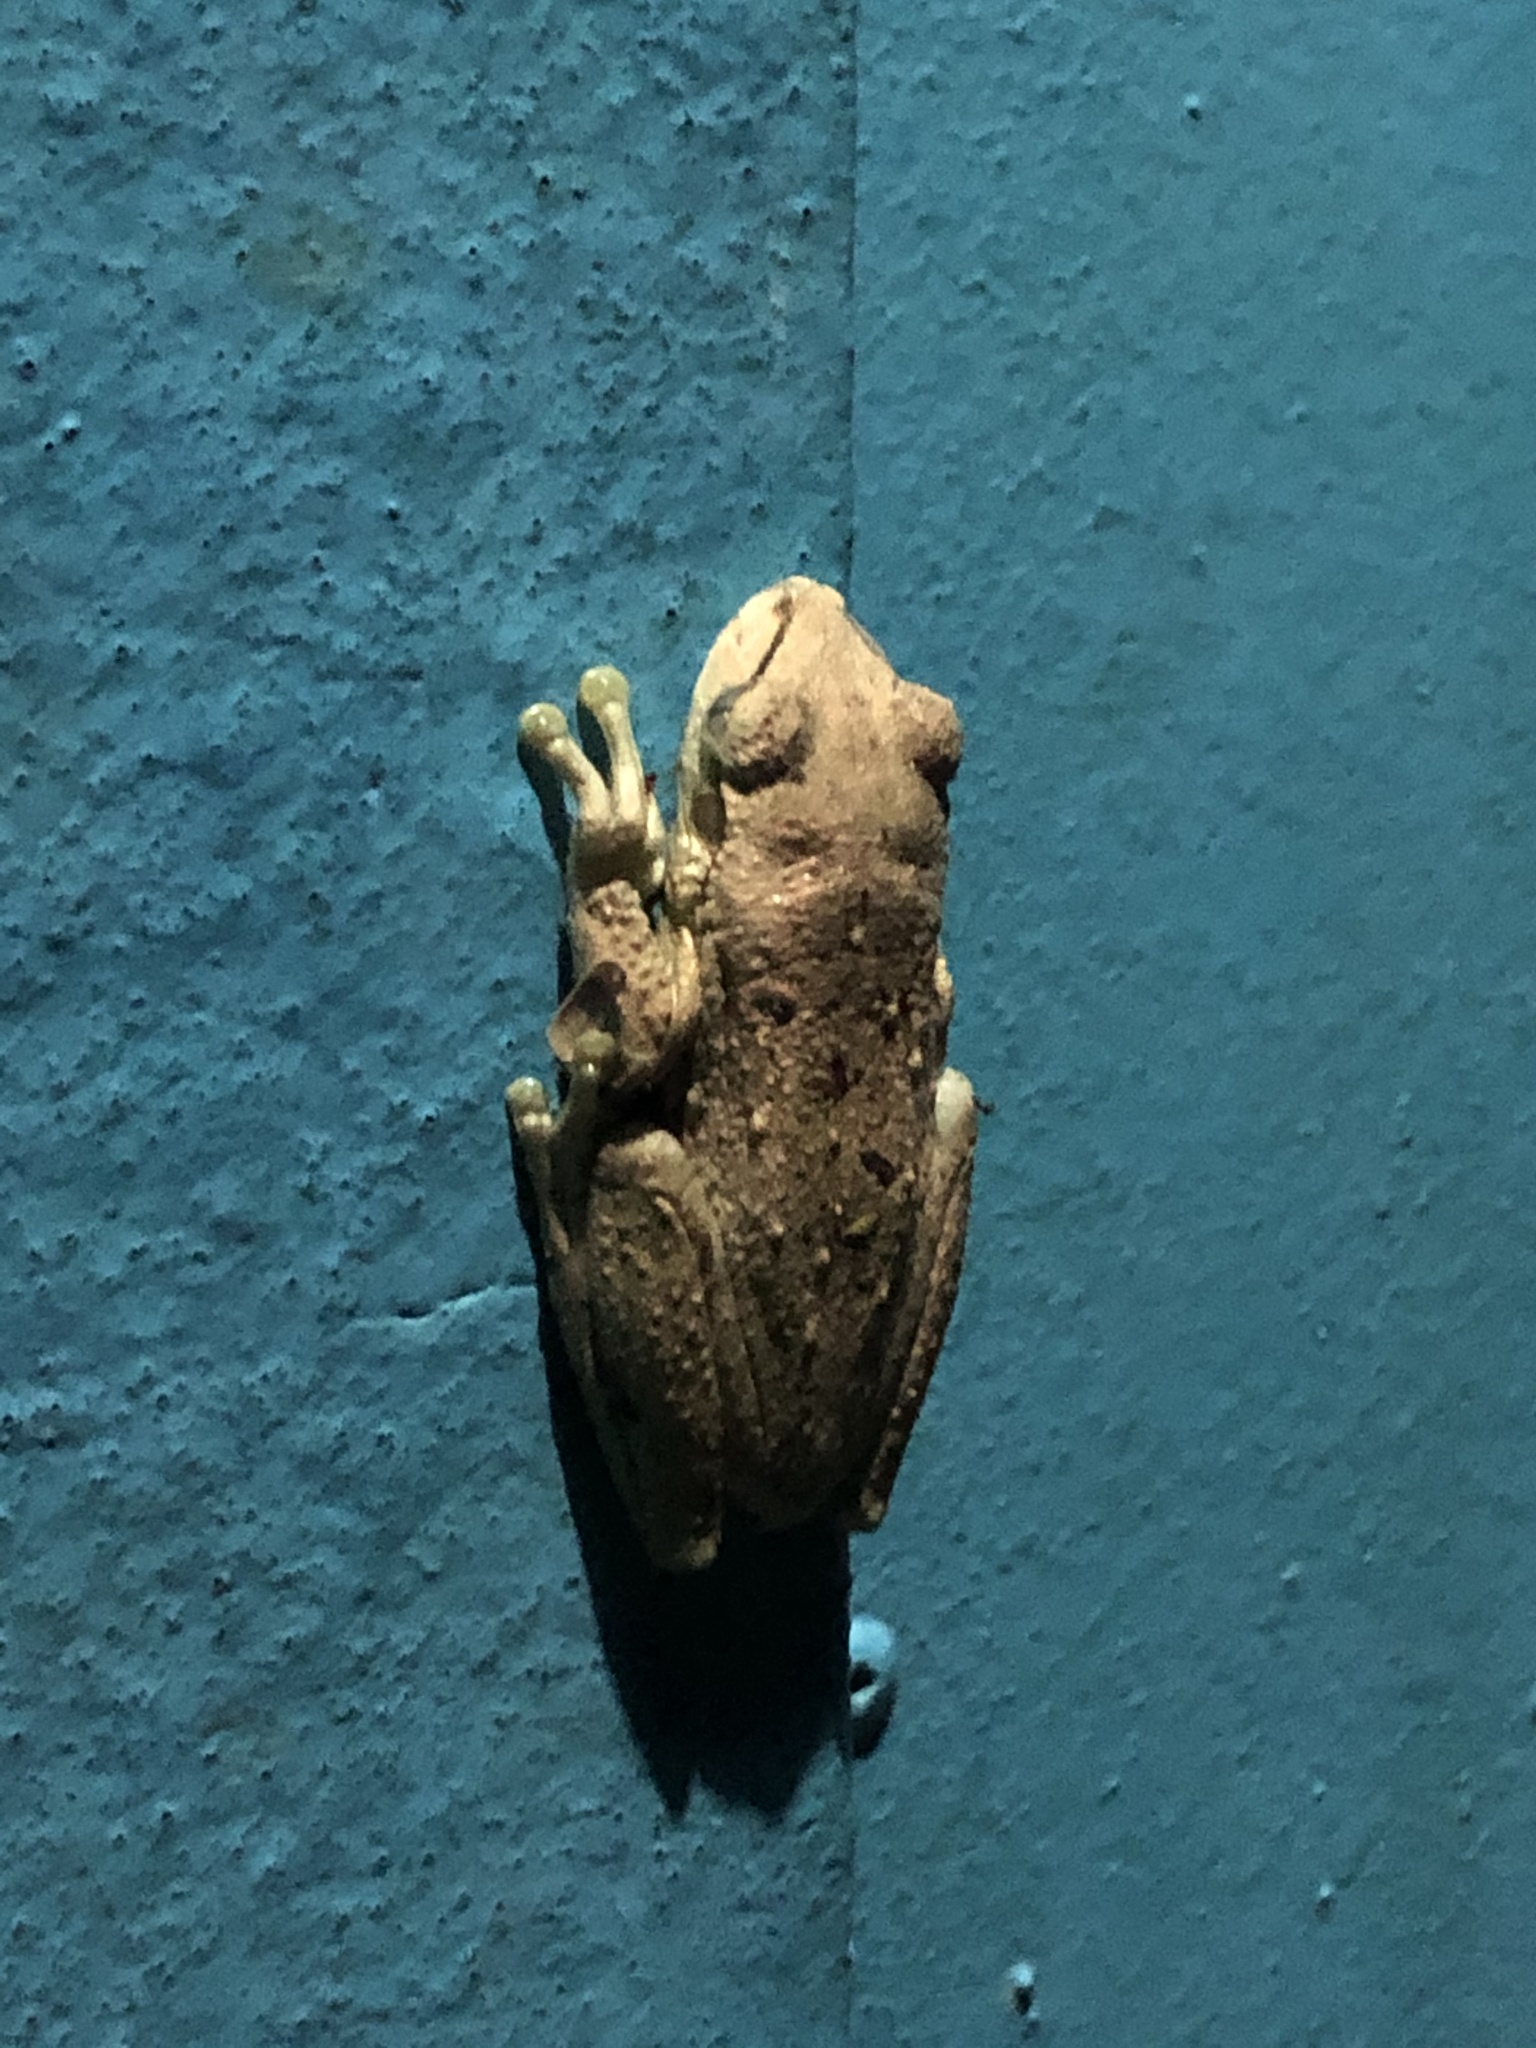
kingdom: Animalia
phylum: Chordata
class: Amphibia
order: Anura
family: Hylidae
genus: Osteopilus
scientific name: Osteopilus dominicensis
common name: Hispaniolan common treefrog
